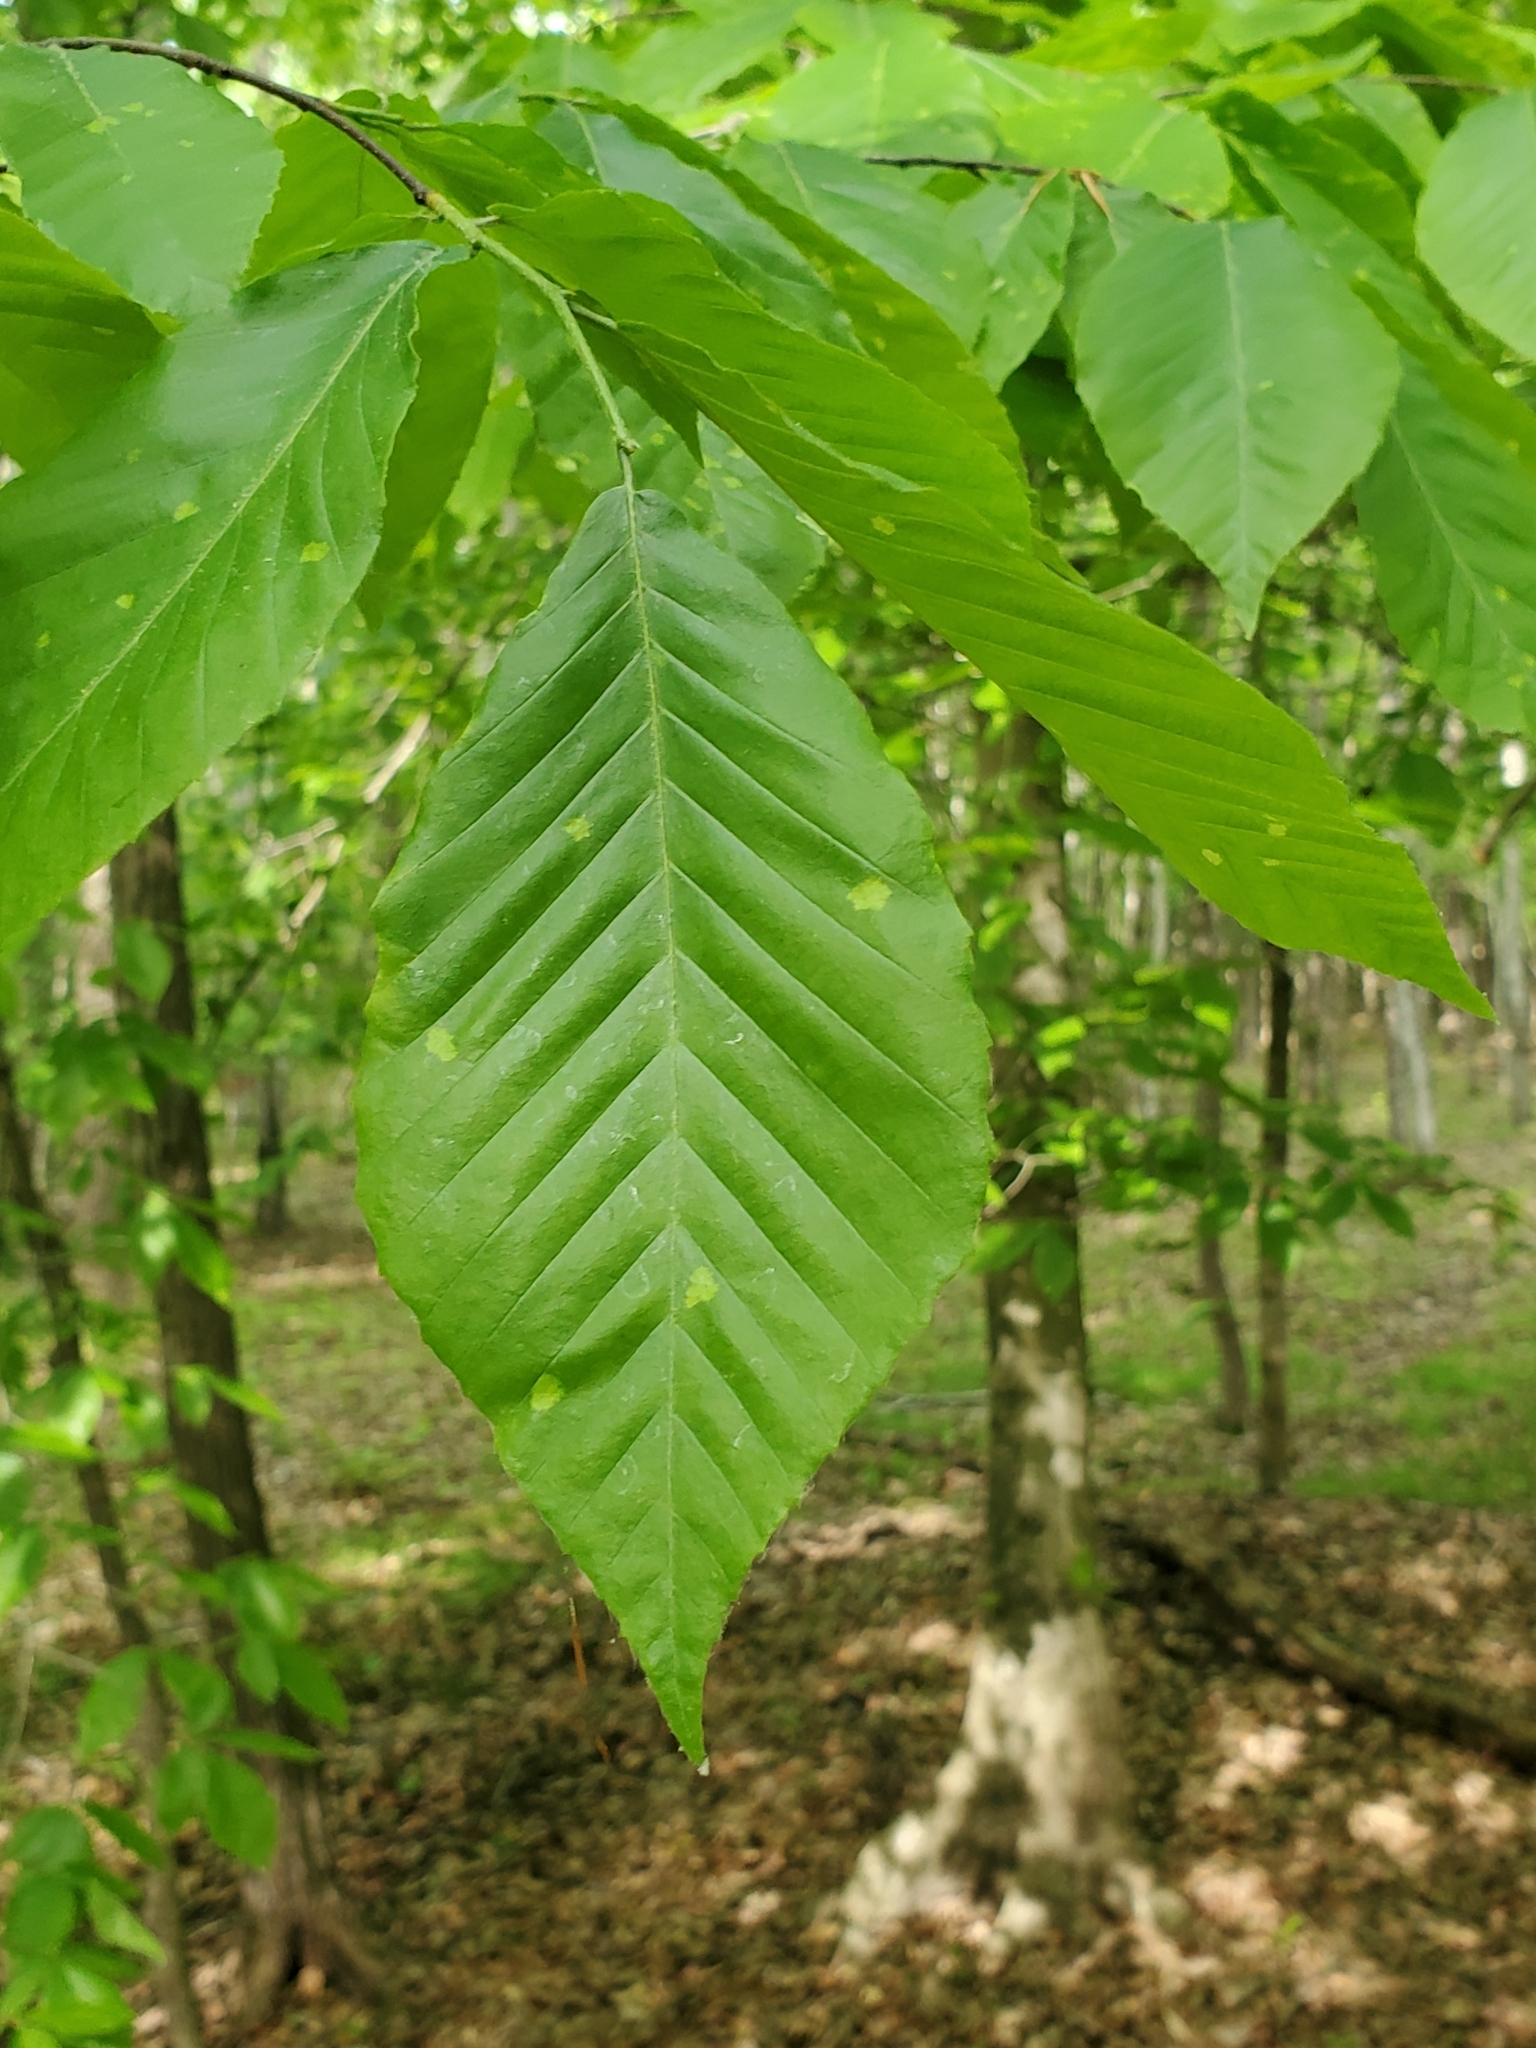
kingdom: Plantae
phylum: Tracheophyta
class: Magnoliopsida
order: Fagales
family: Fagaceae
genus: Fagus
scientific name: Fagus grandifolia
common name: American beech
